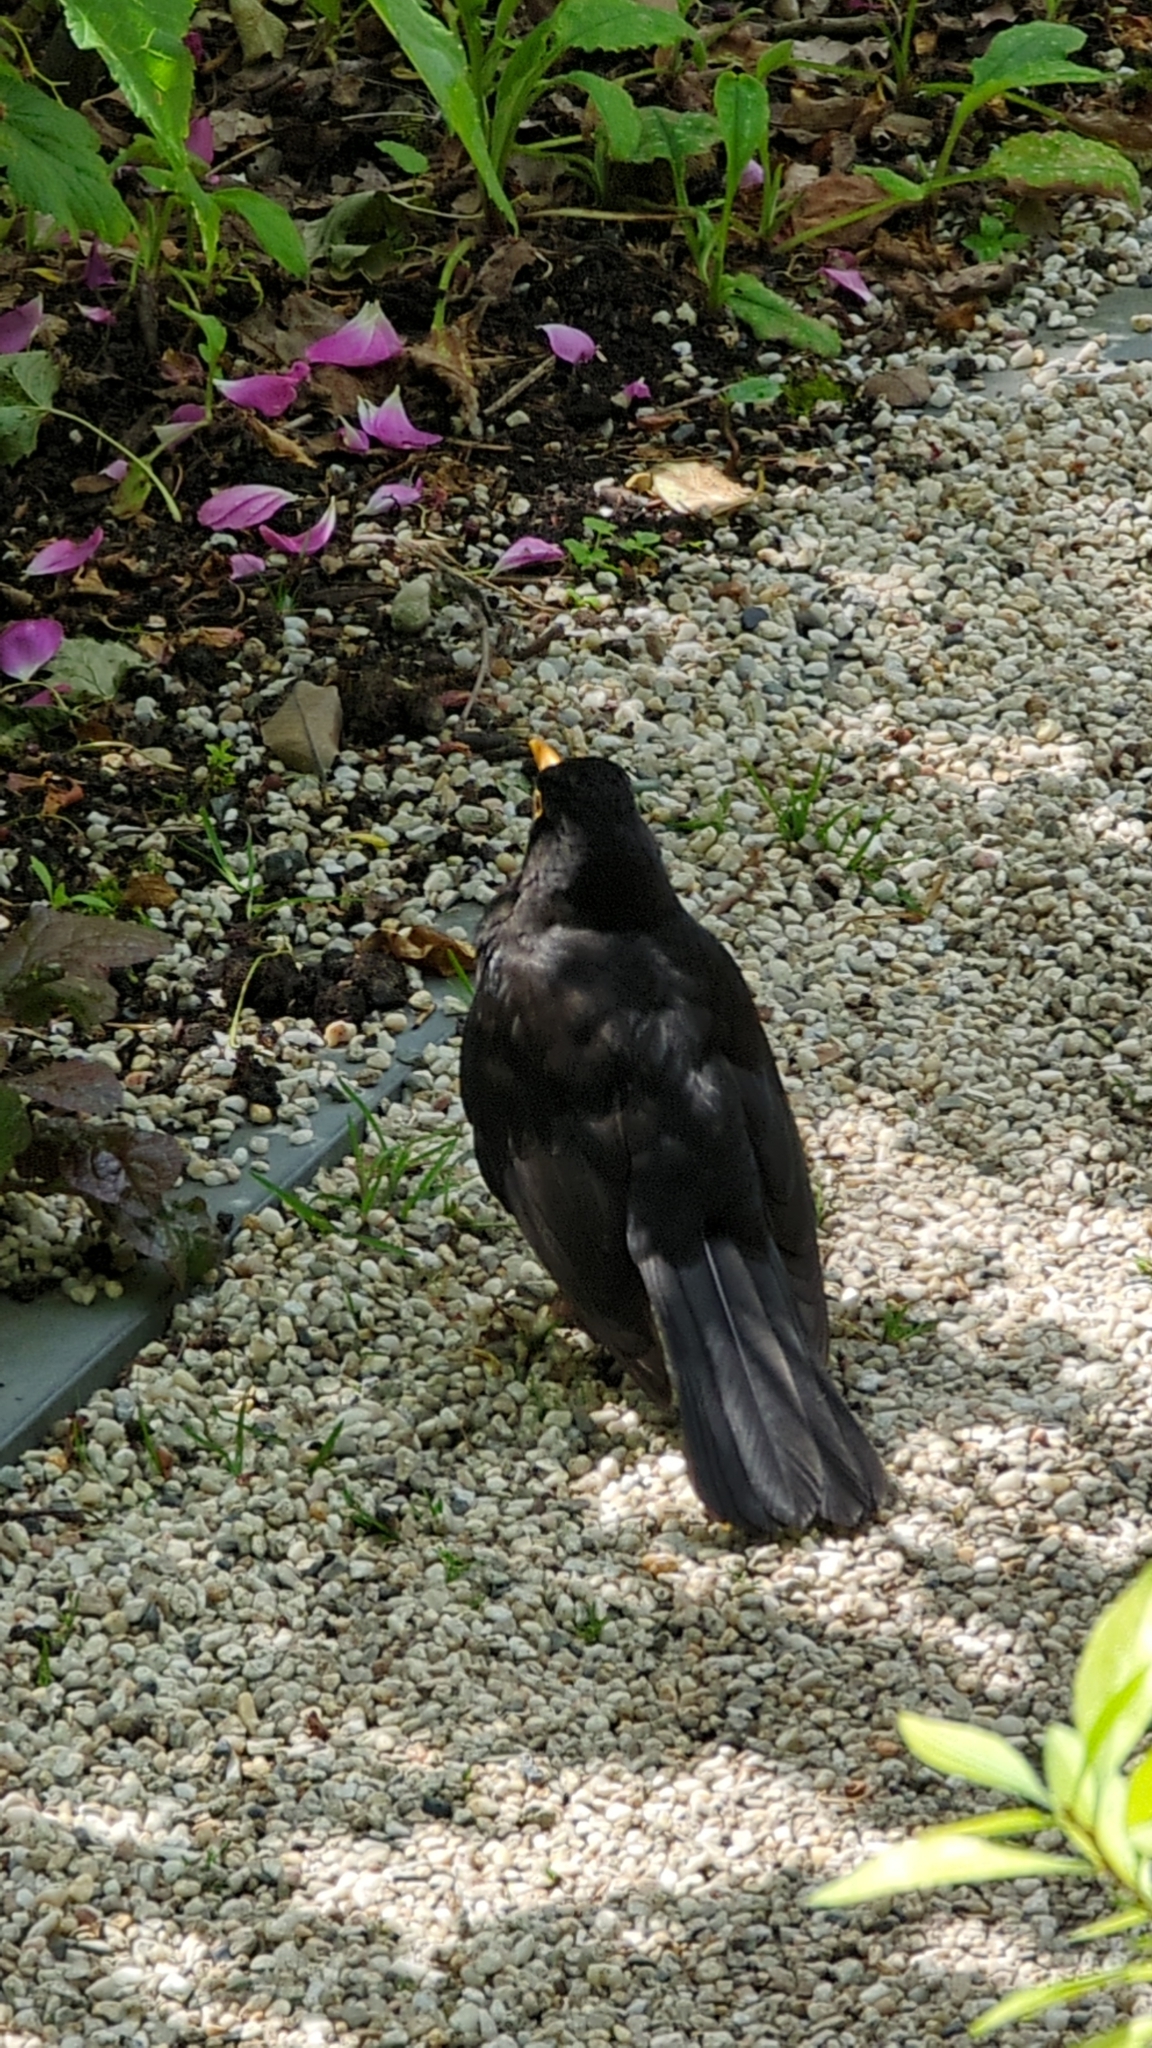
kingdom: Animalia
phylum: Chordata
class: Aves
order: Passeriformes
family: Turdidae
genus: Turdus
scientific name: Turdus merula
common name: Common blackbird
